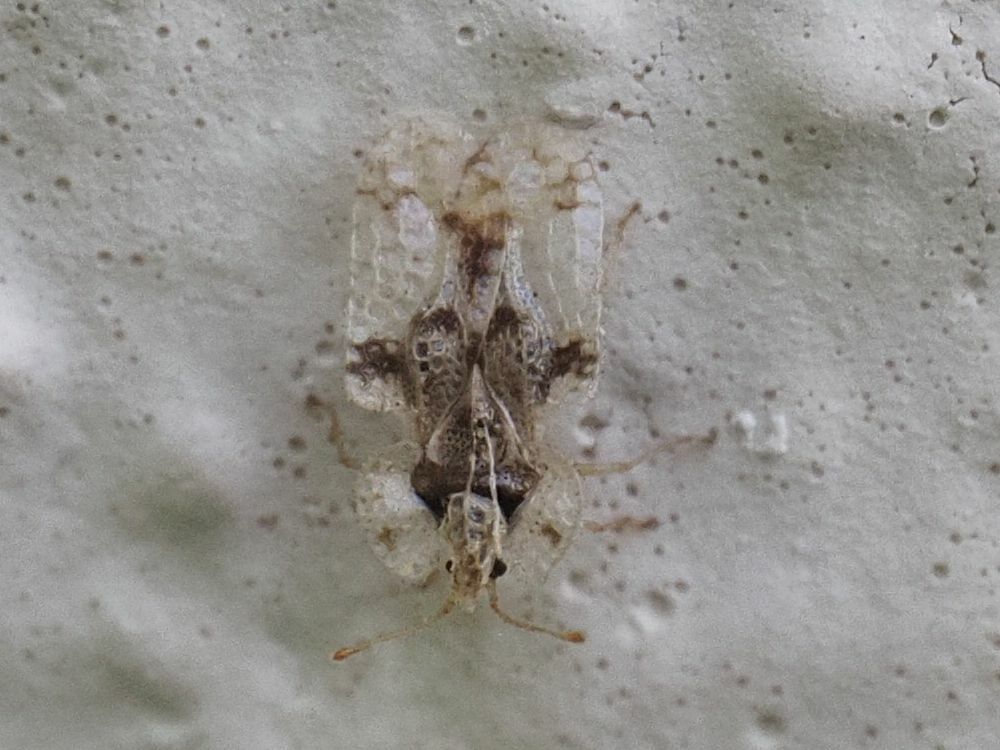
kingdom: Animalia
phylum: Arthropoda
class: Insecta
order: Hemiptera
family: Tingidae
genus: Corythucha
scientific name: Corythucha arcuata
